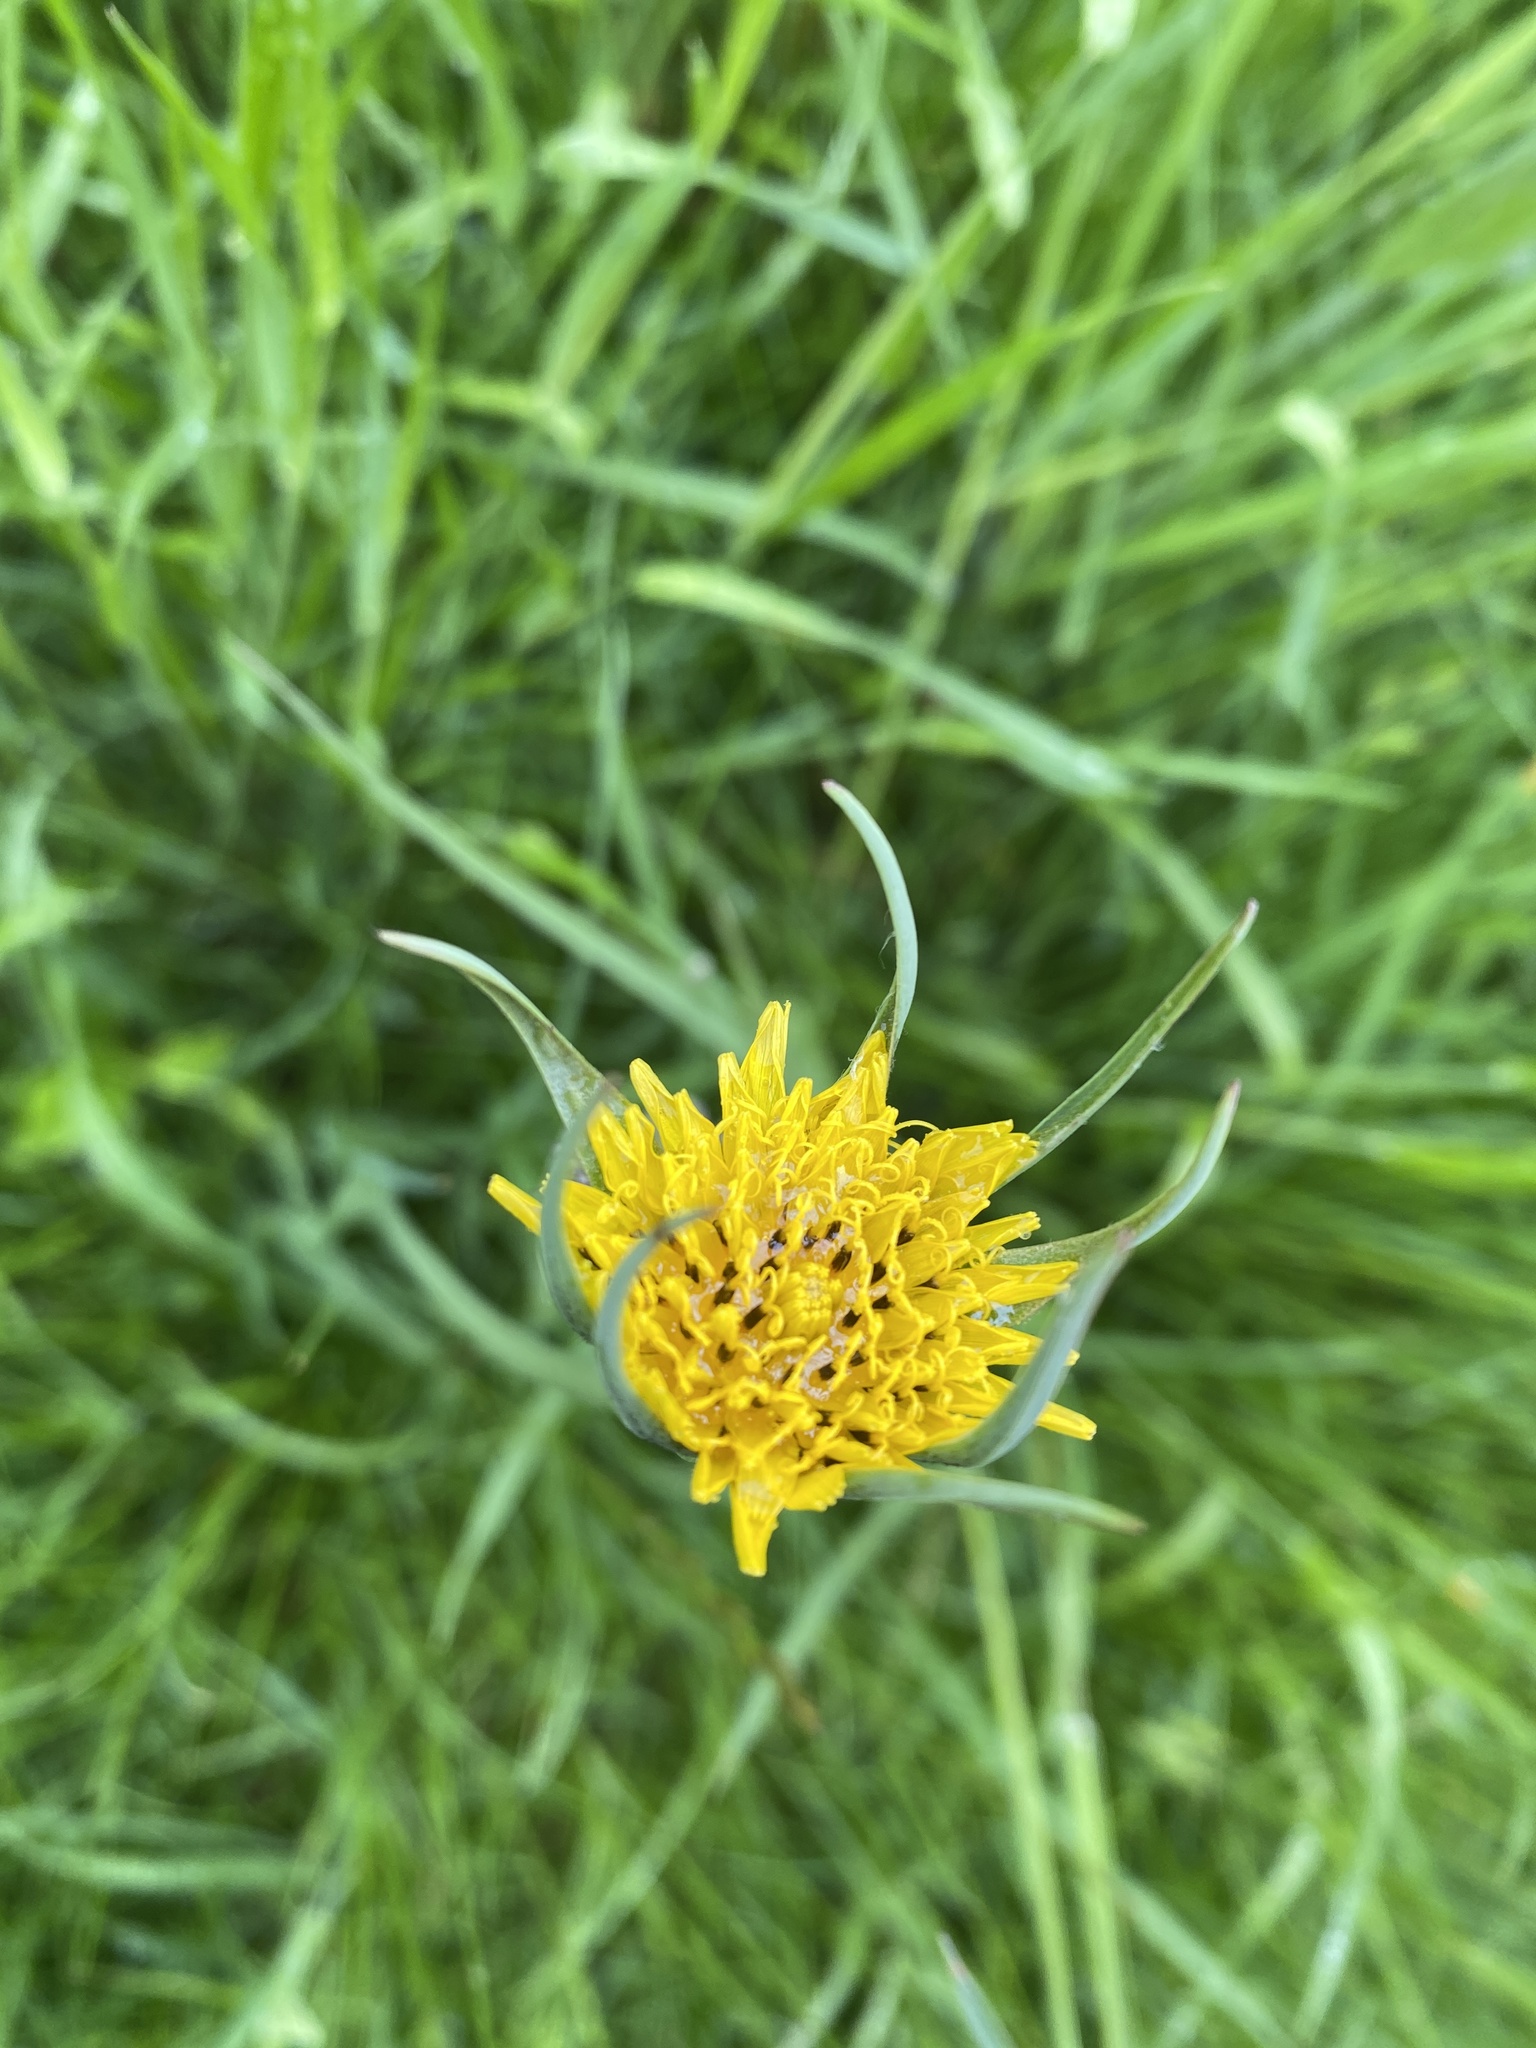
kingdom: Plantae
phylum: Tracheophyta
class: Magnoliopsida
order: Asterales
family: Asteraceae
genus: Tragopogon
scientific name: Tragopogon pratensis
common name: Goat's-beard
